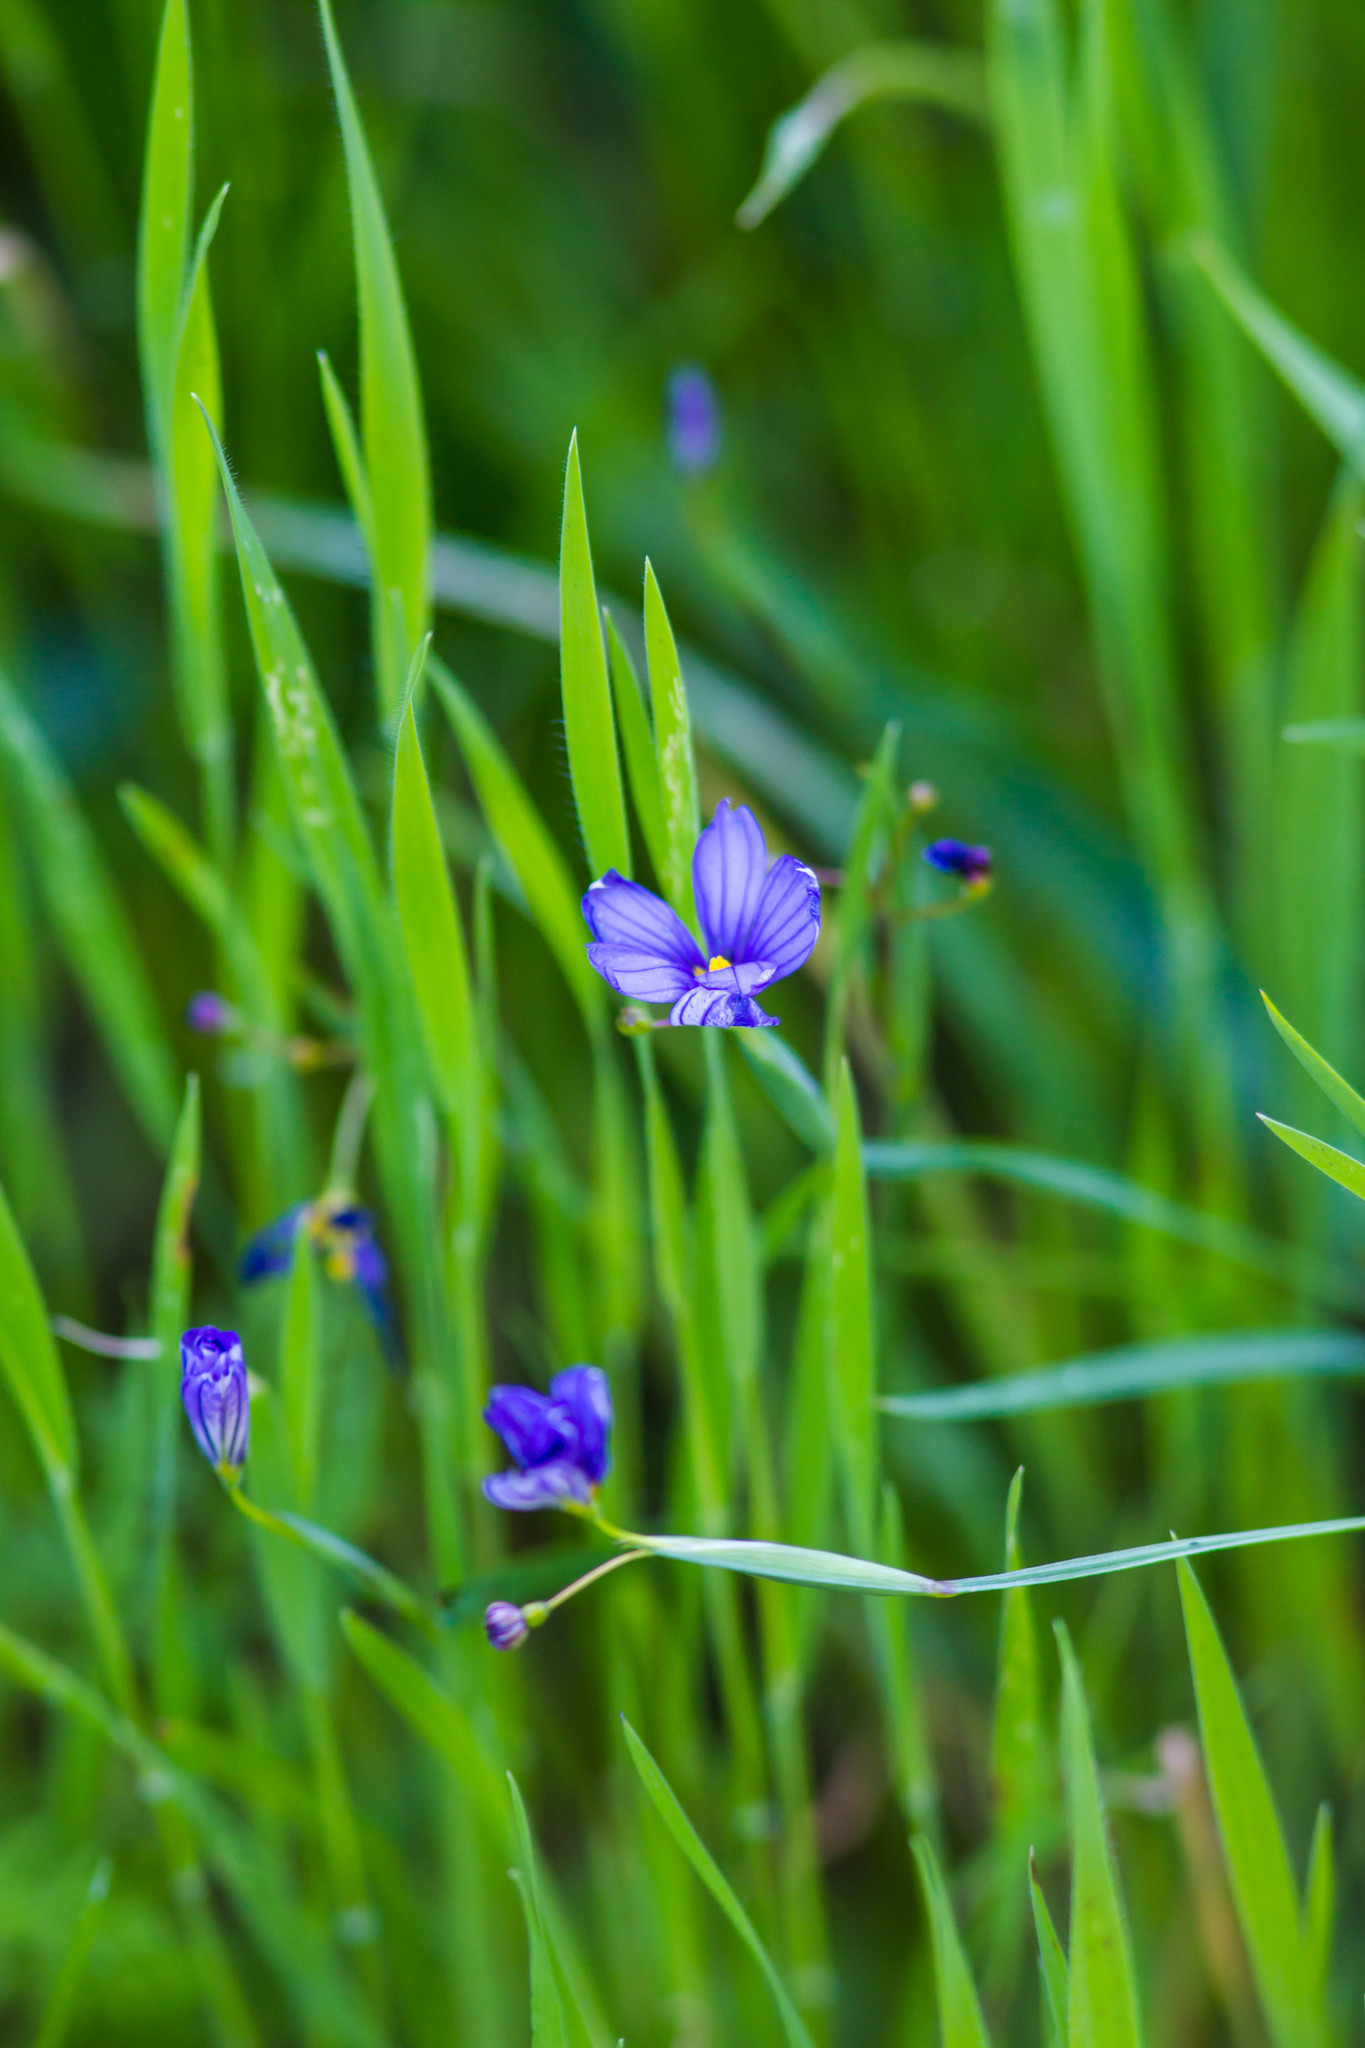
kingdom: Plantae
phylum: Tracheophyta
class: Liliopsida
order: Asparagales
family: Iridaceae
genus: Sisyrinchium
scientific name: Sisyrinchium bellum
